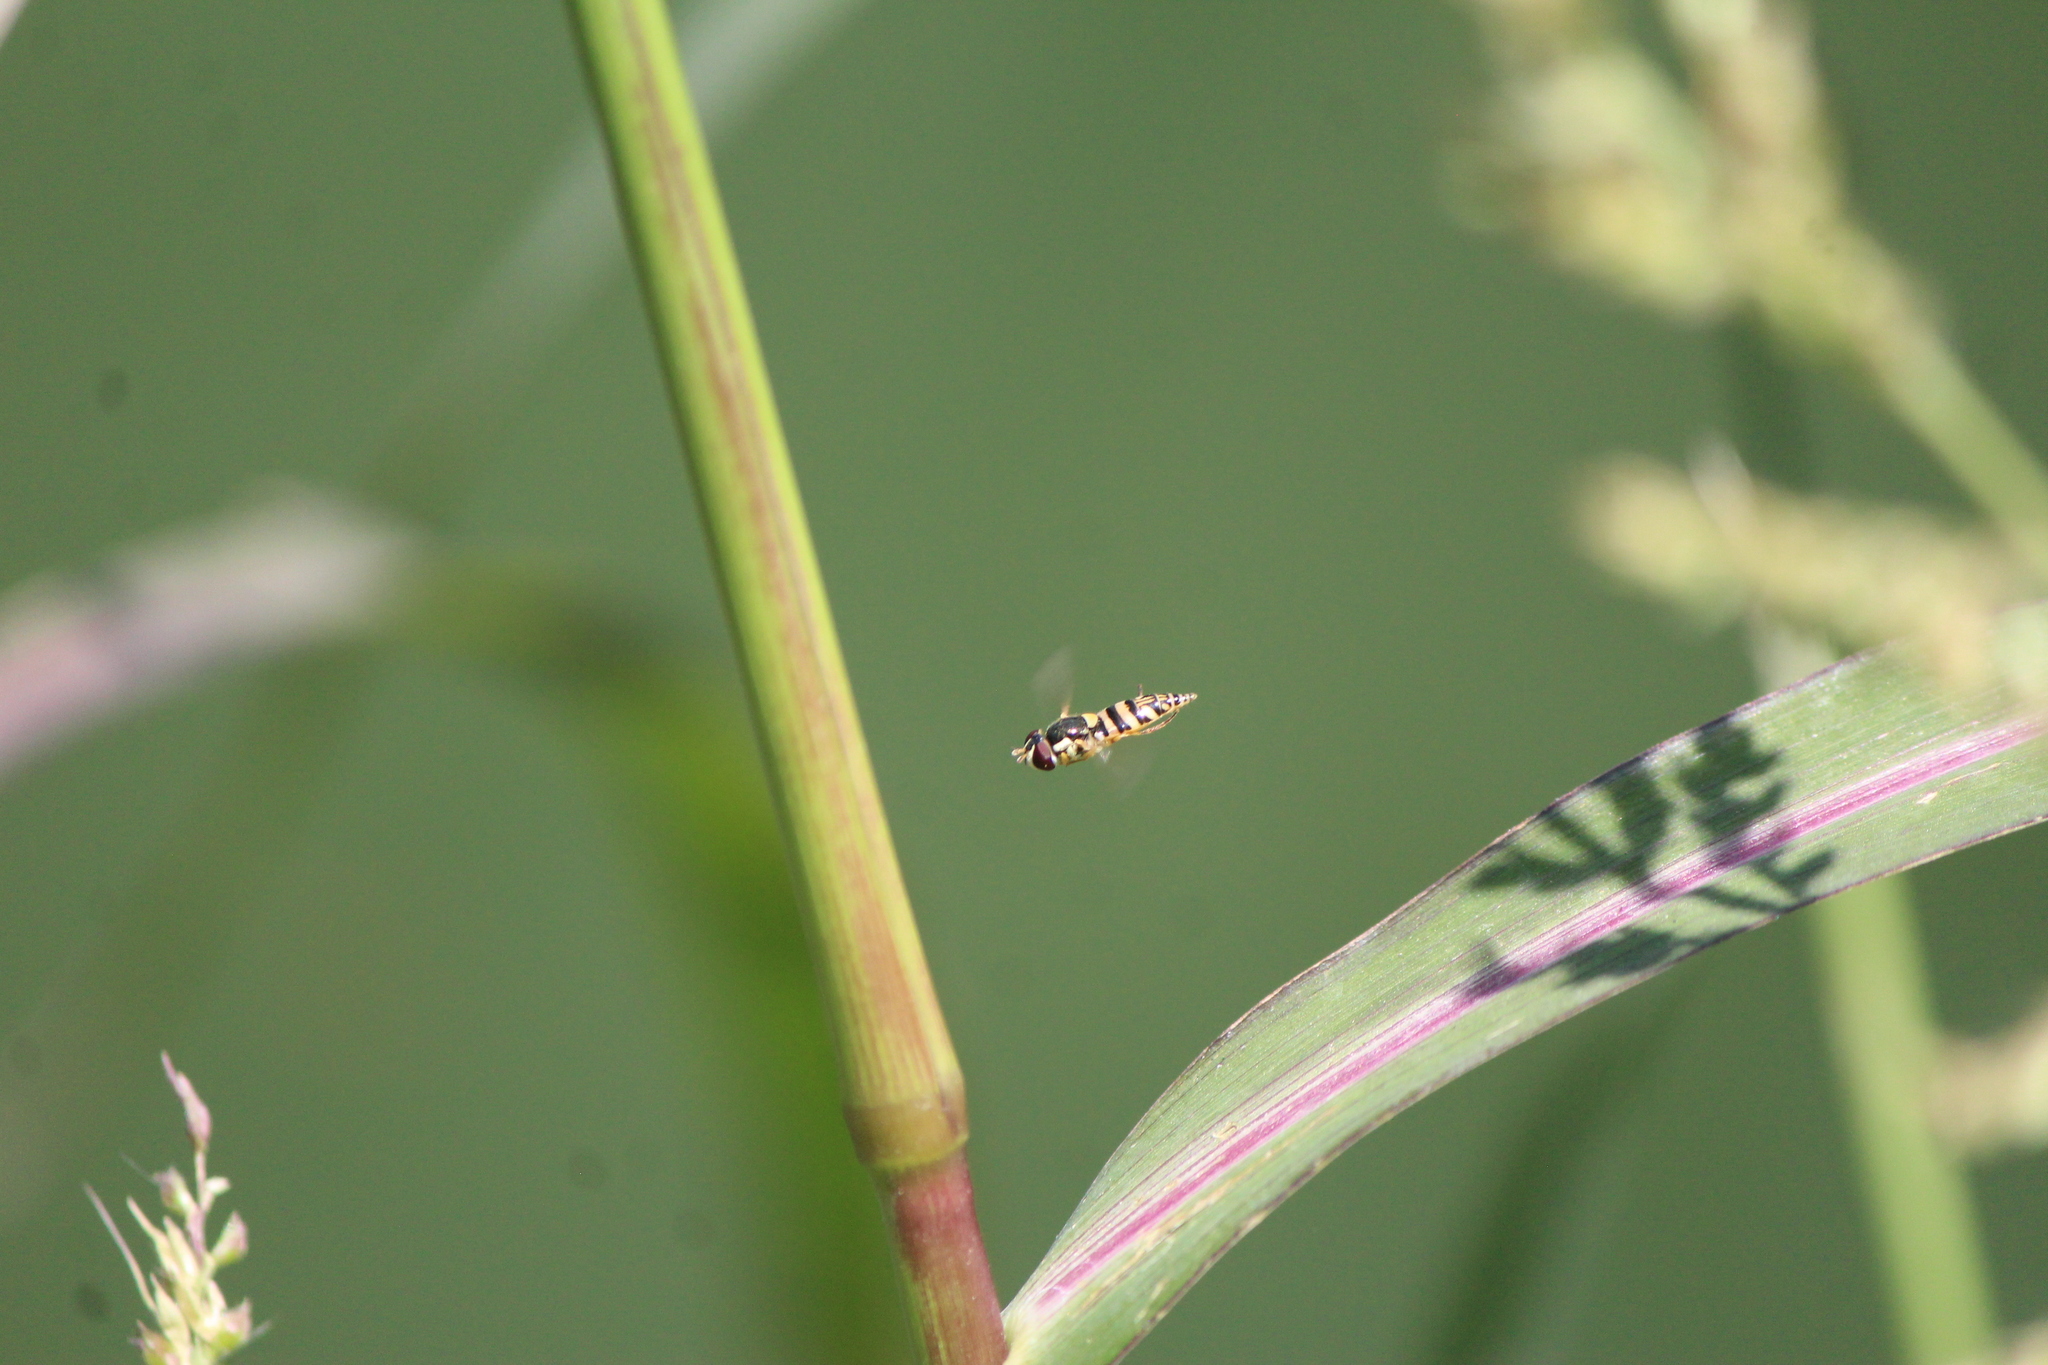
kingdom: Animalia
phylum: Arthropoda
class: Insecta
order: Diptera
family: Syrphidae
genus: Allograpta
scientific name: Allograpta exotica
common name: Syrphid fly
